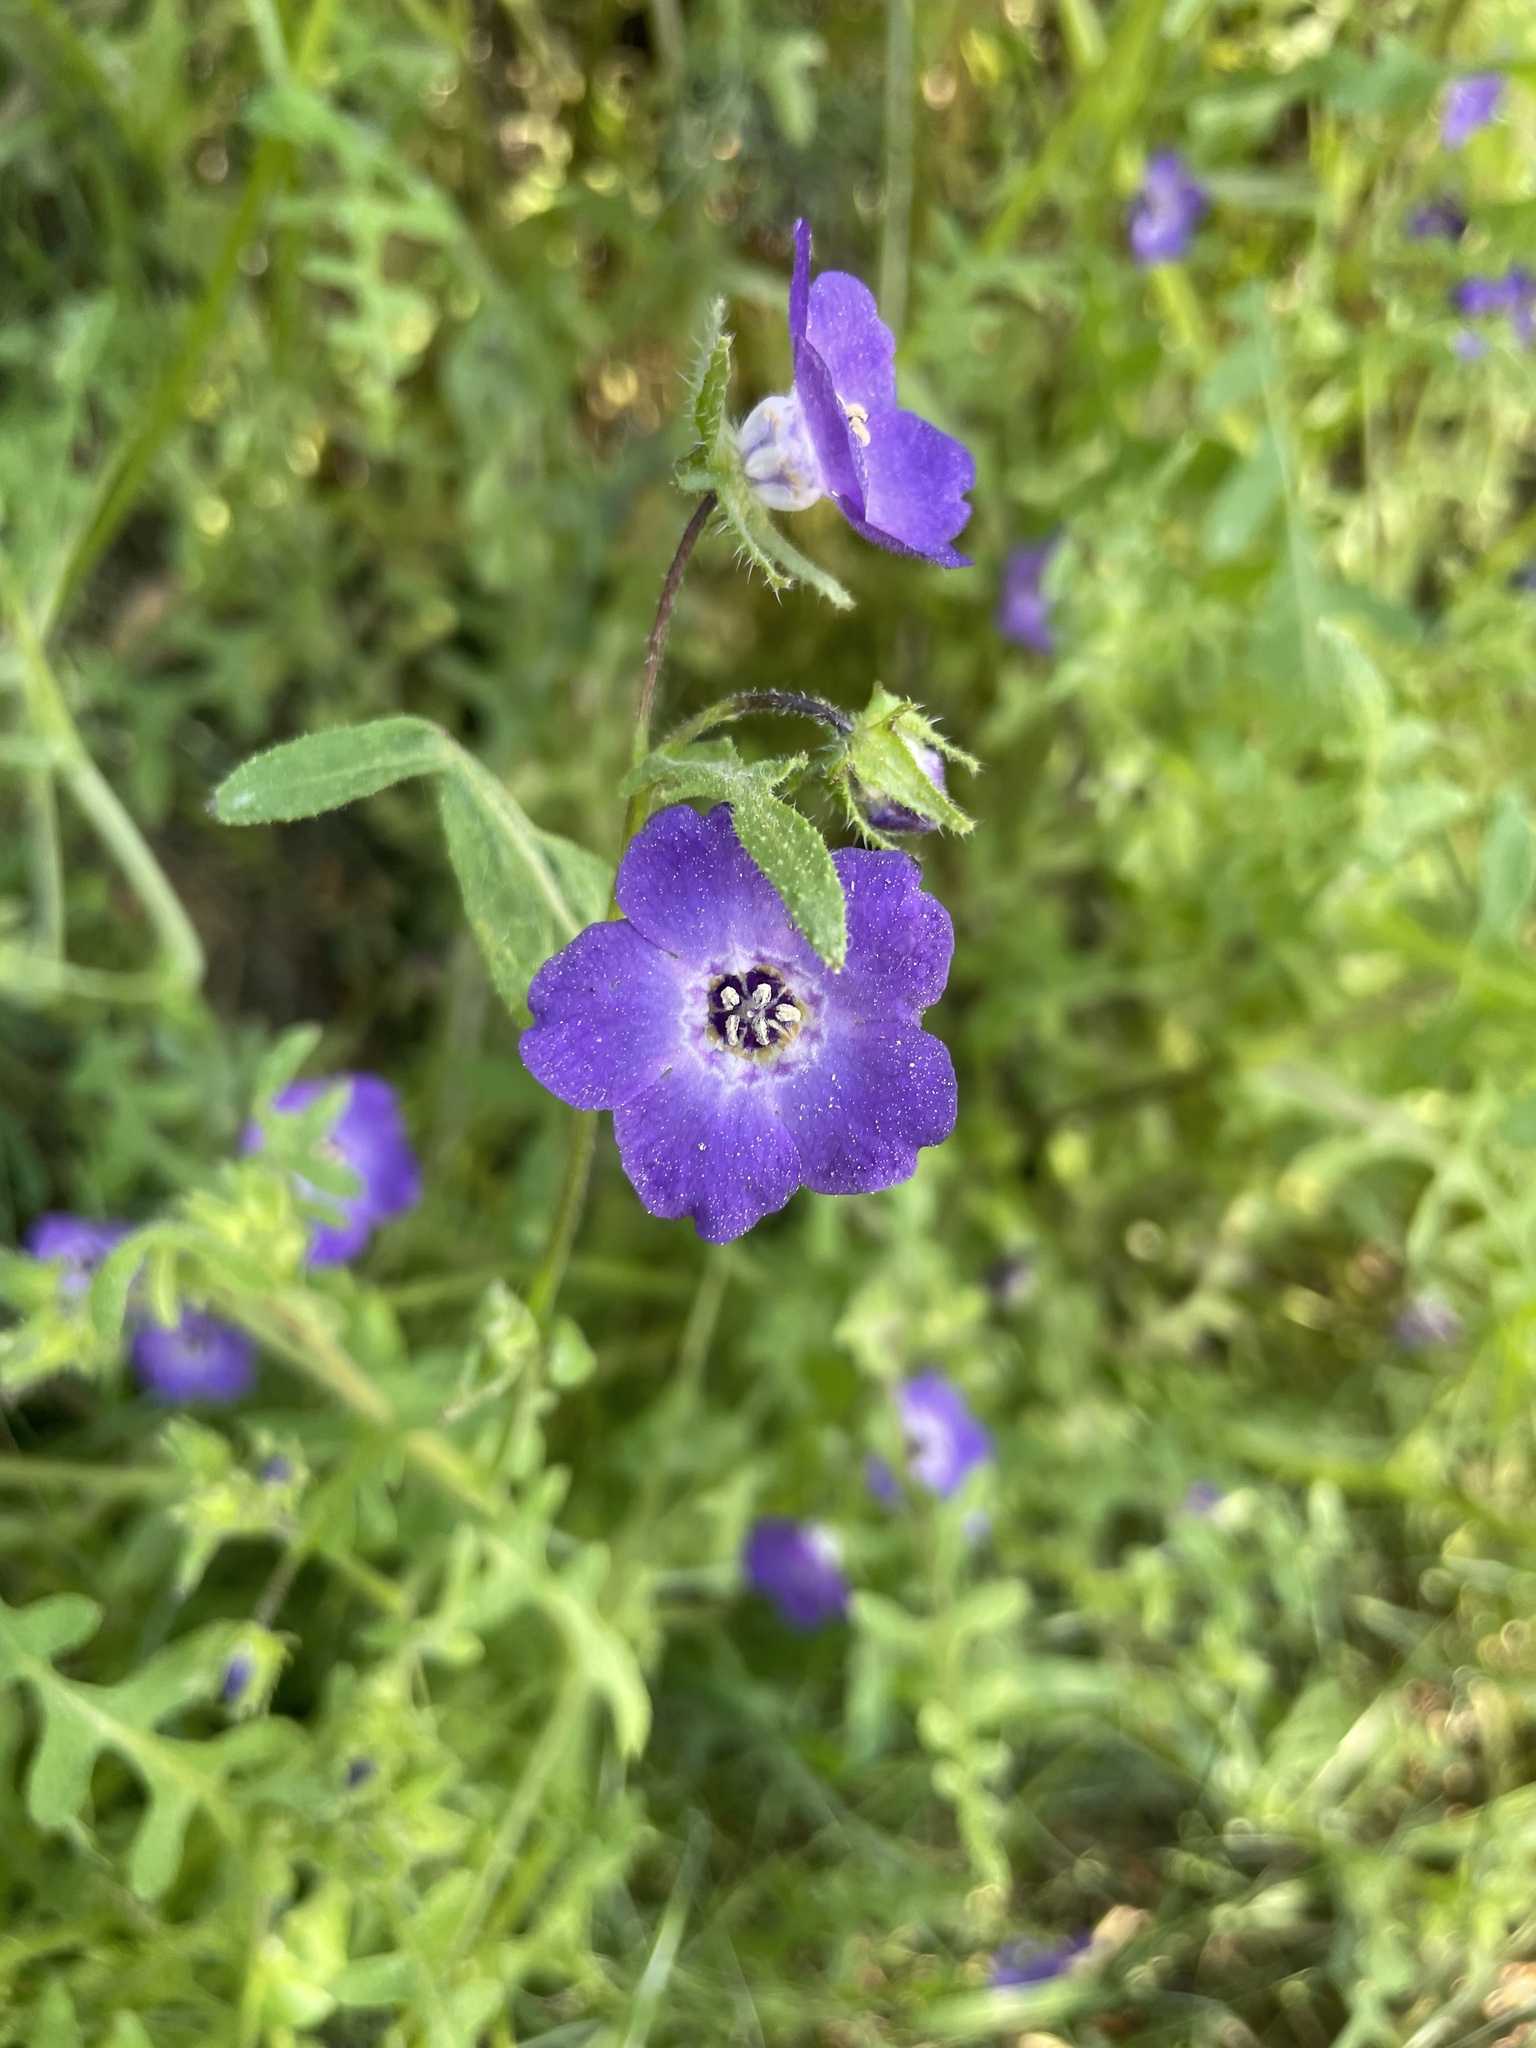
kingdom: Plantae
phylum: Tracheophyta
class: Magnoliopsida
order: Boraginales
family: Hydrophyllaceae
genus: Pholistoma
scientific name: Pholistoma auritum
